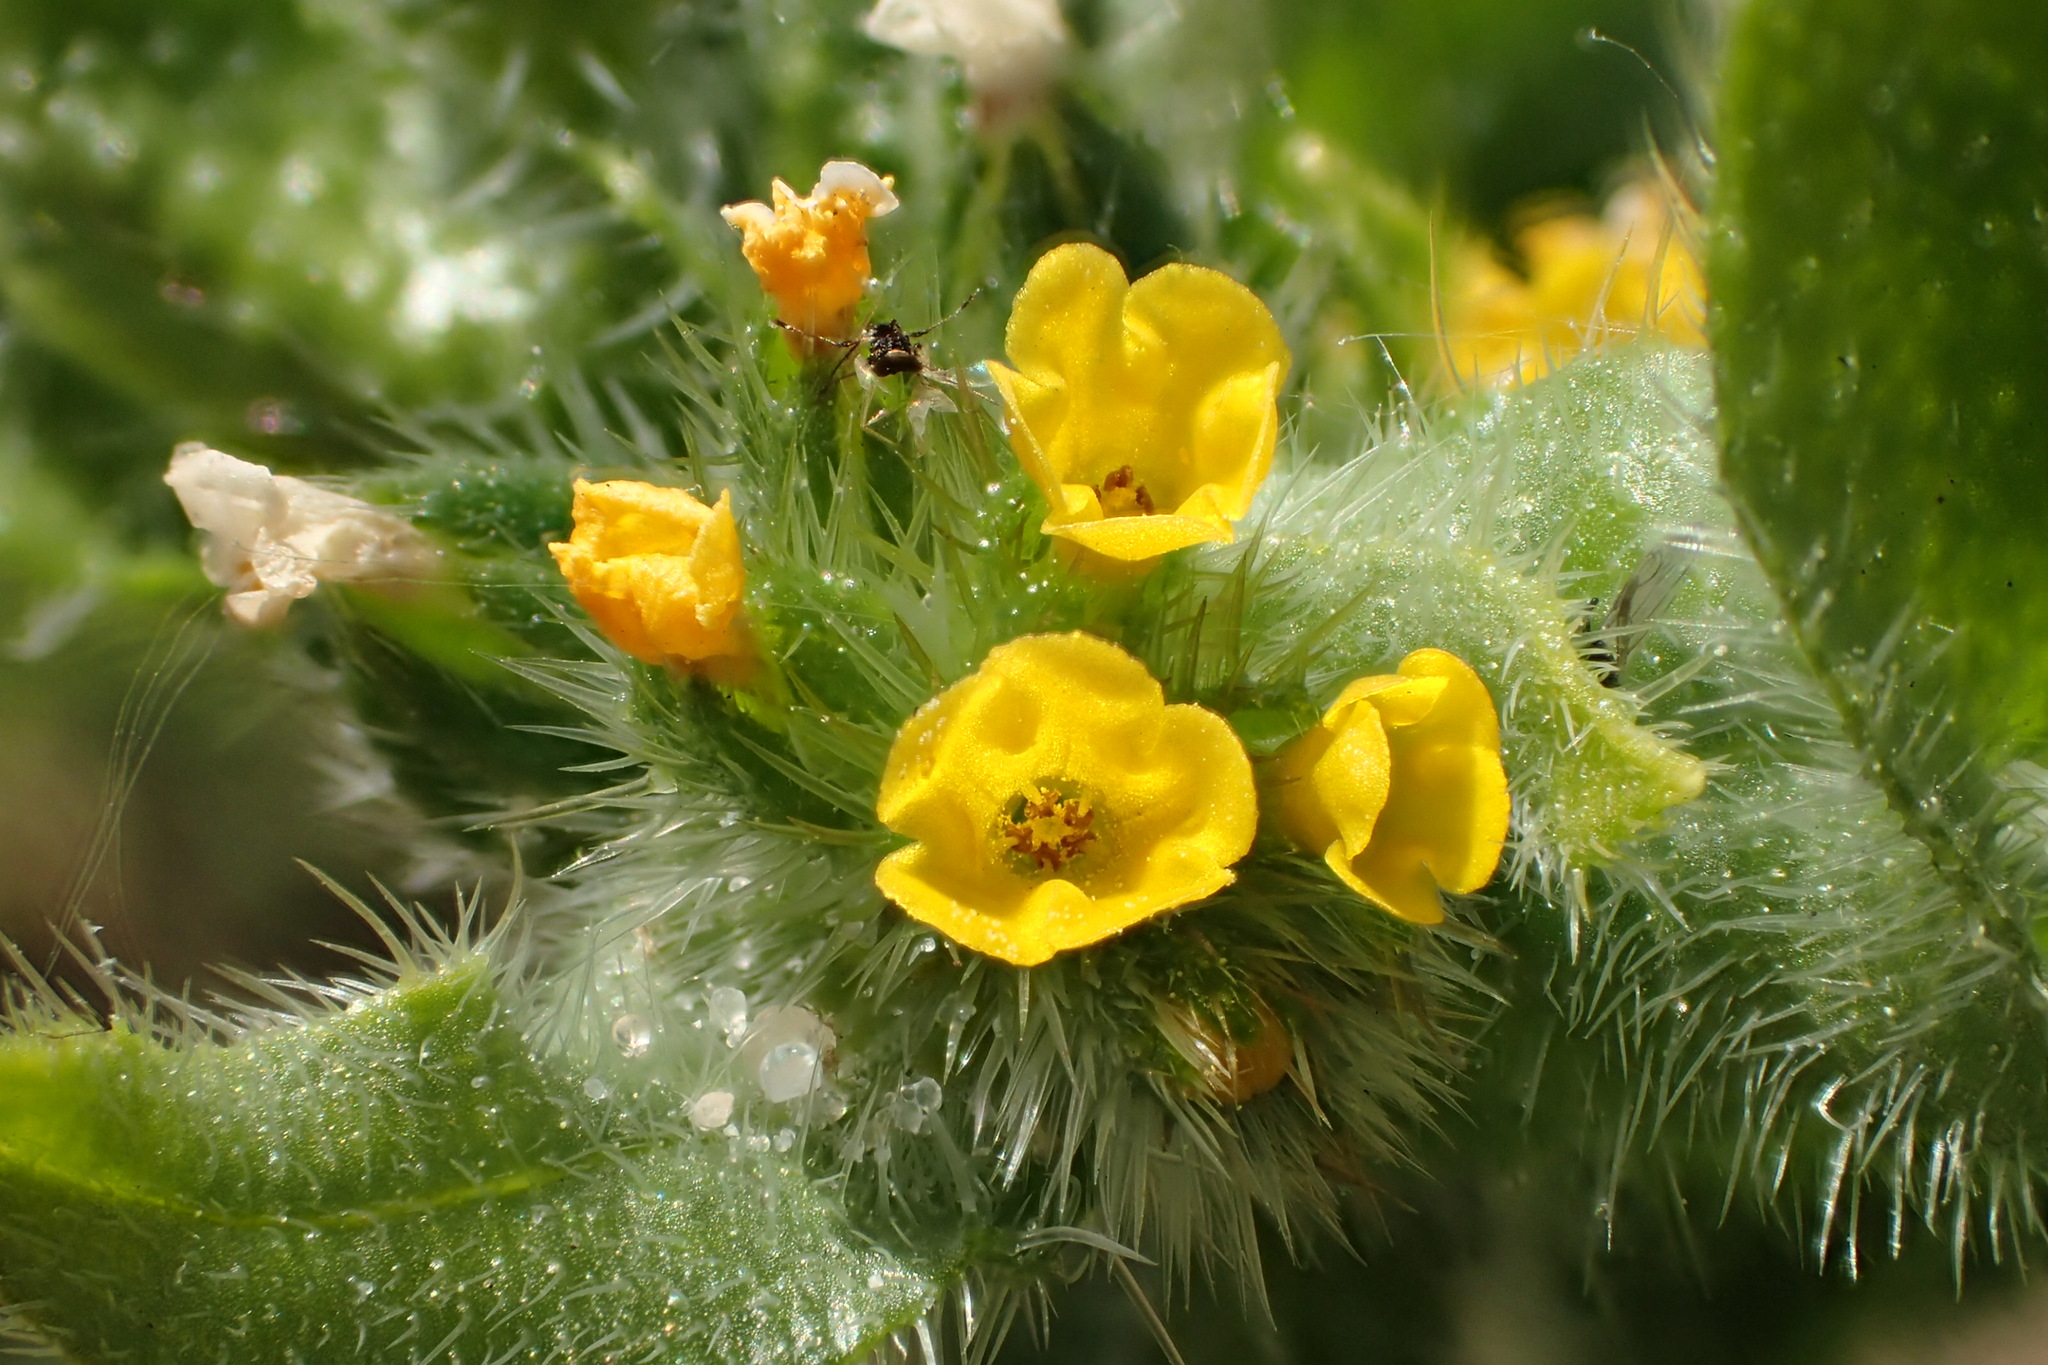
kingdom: Plantae
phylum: Tracheophyta
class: Magnoliopsida
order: Boraginales
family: Boraginaceae
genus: Amsinckia
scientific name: Amsinckia menziesii
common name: Menzies' fiddleneck
